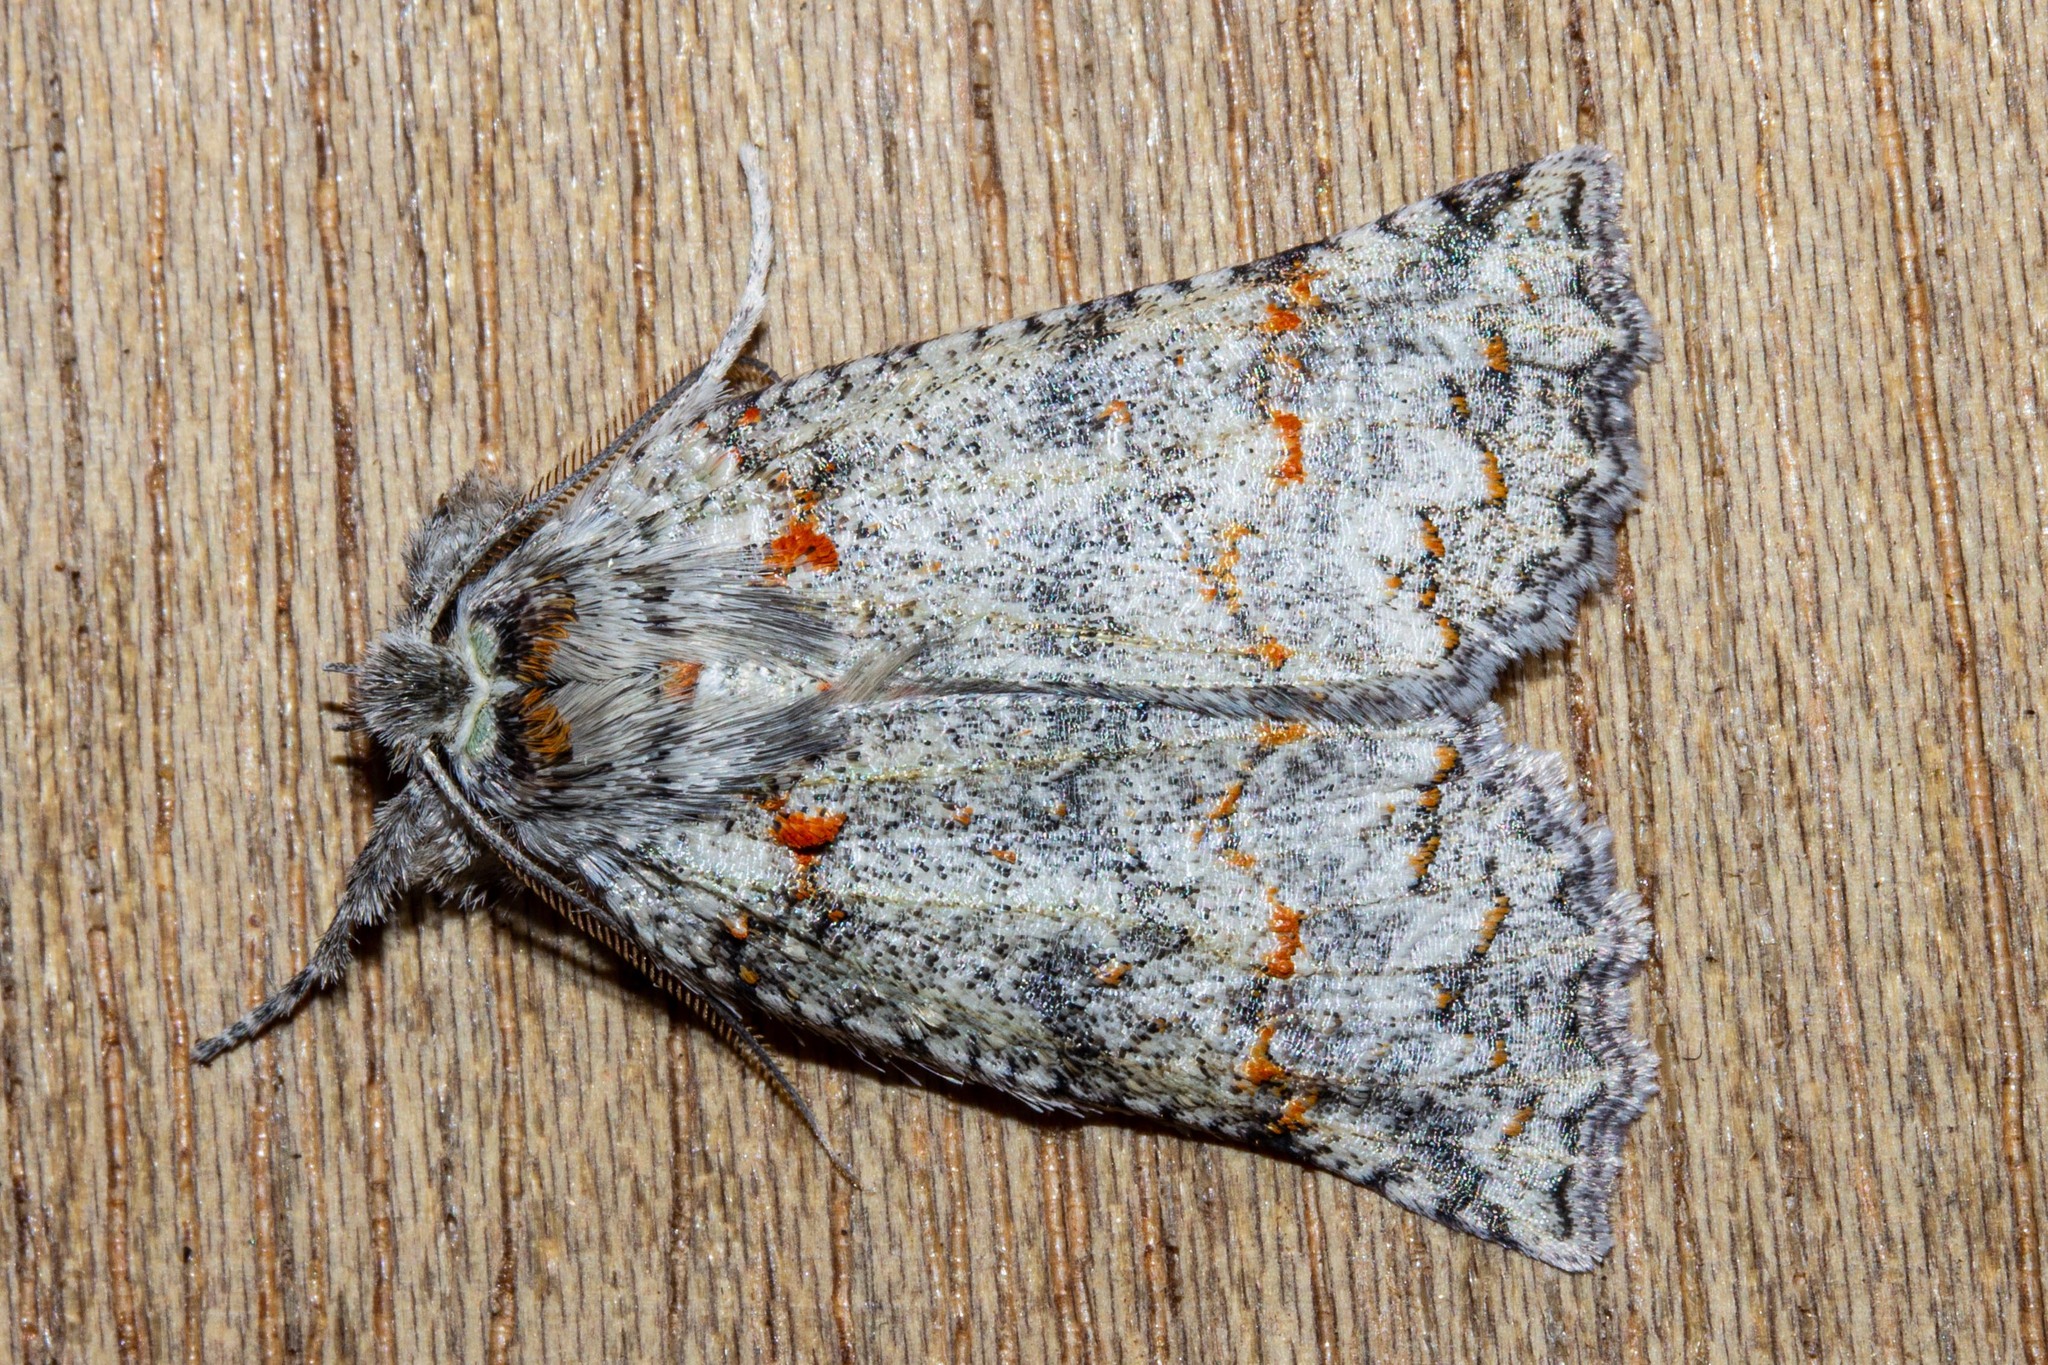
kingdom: Animalia
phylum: Arthropoda
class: Insecta
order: Lepidoptera
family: Geometridae
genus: Declana
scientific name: Declana floccosa
